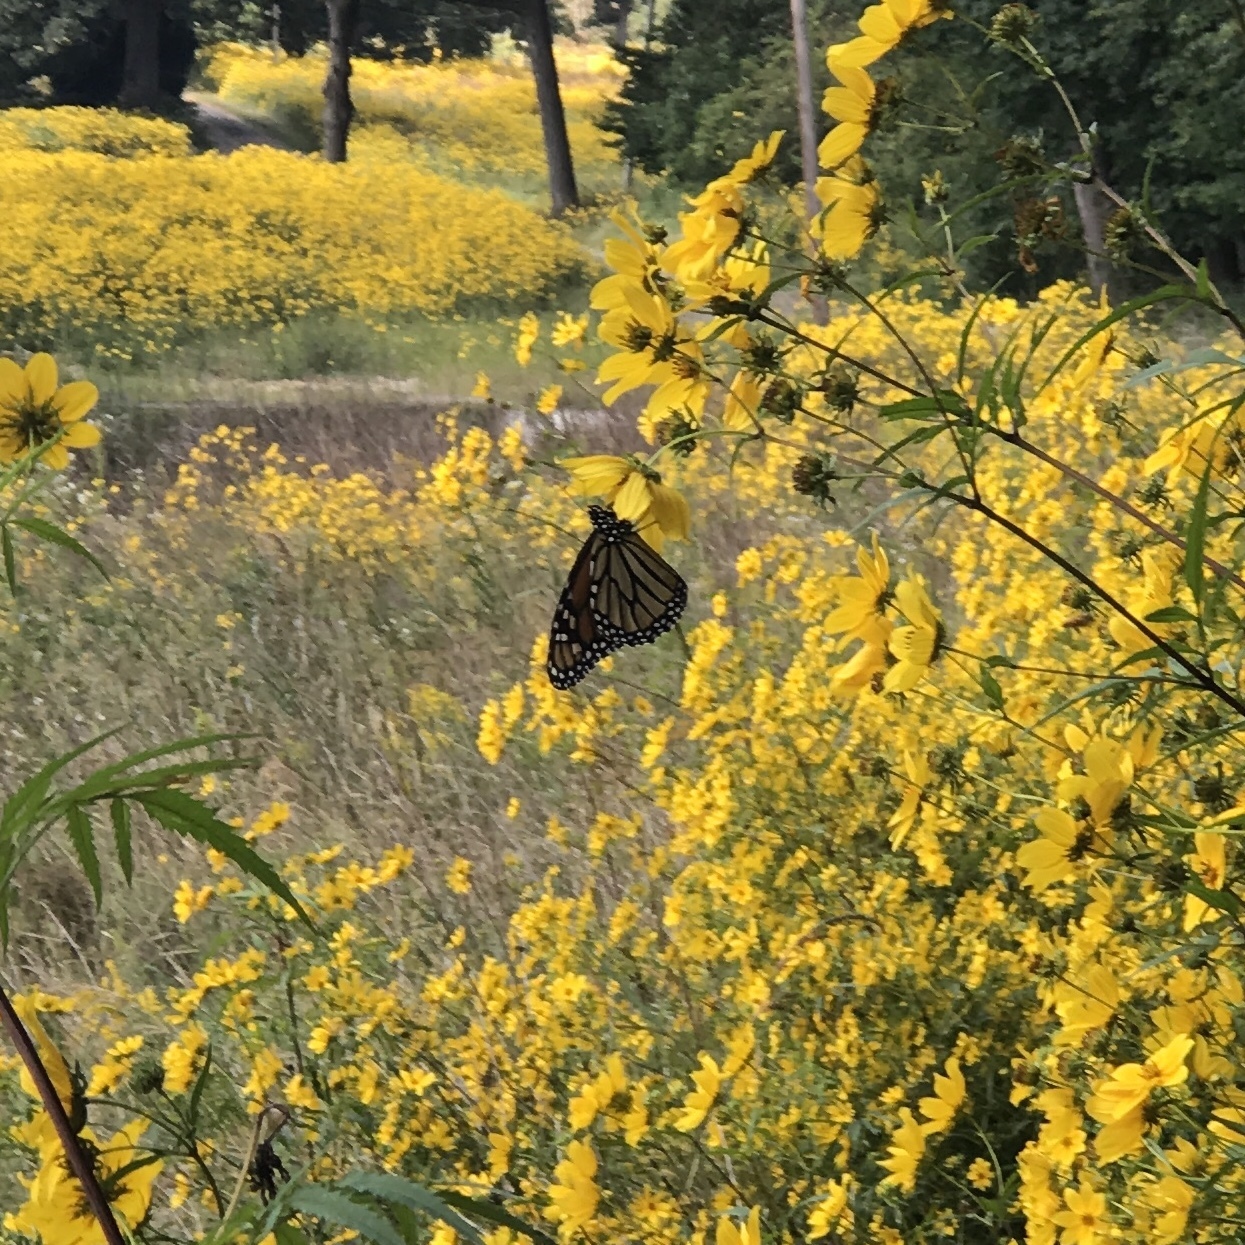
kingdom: Animalia
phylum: Arthropoda
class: Insecta
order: Lepidoptera
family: Nymphalidae
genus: Danaus
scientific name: Danaus plexippus
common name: Monarch
